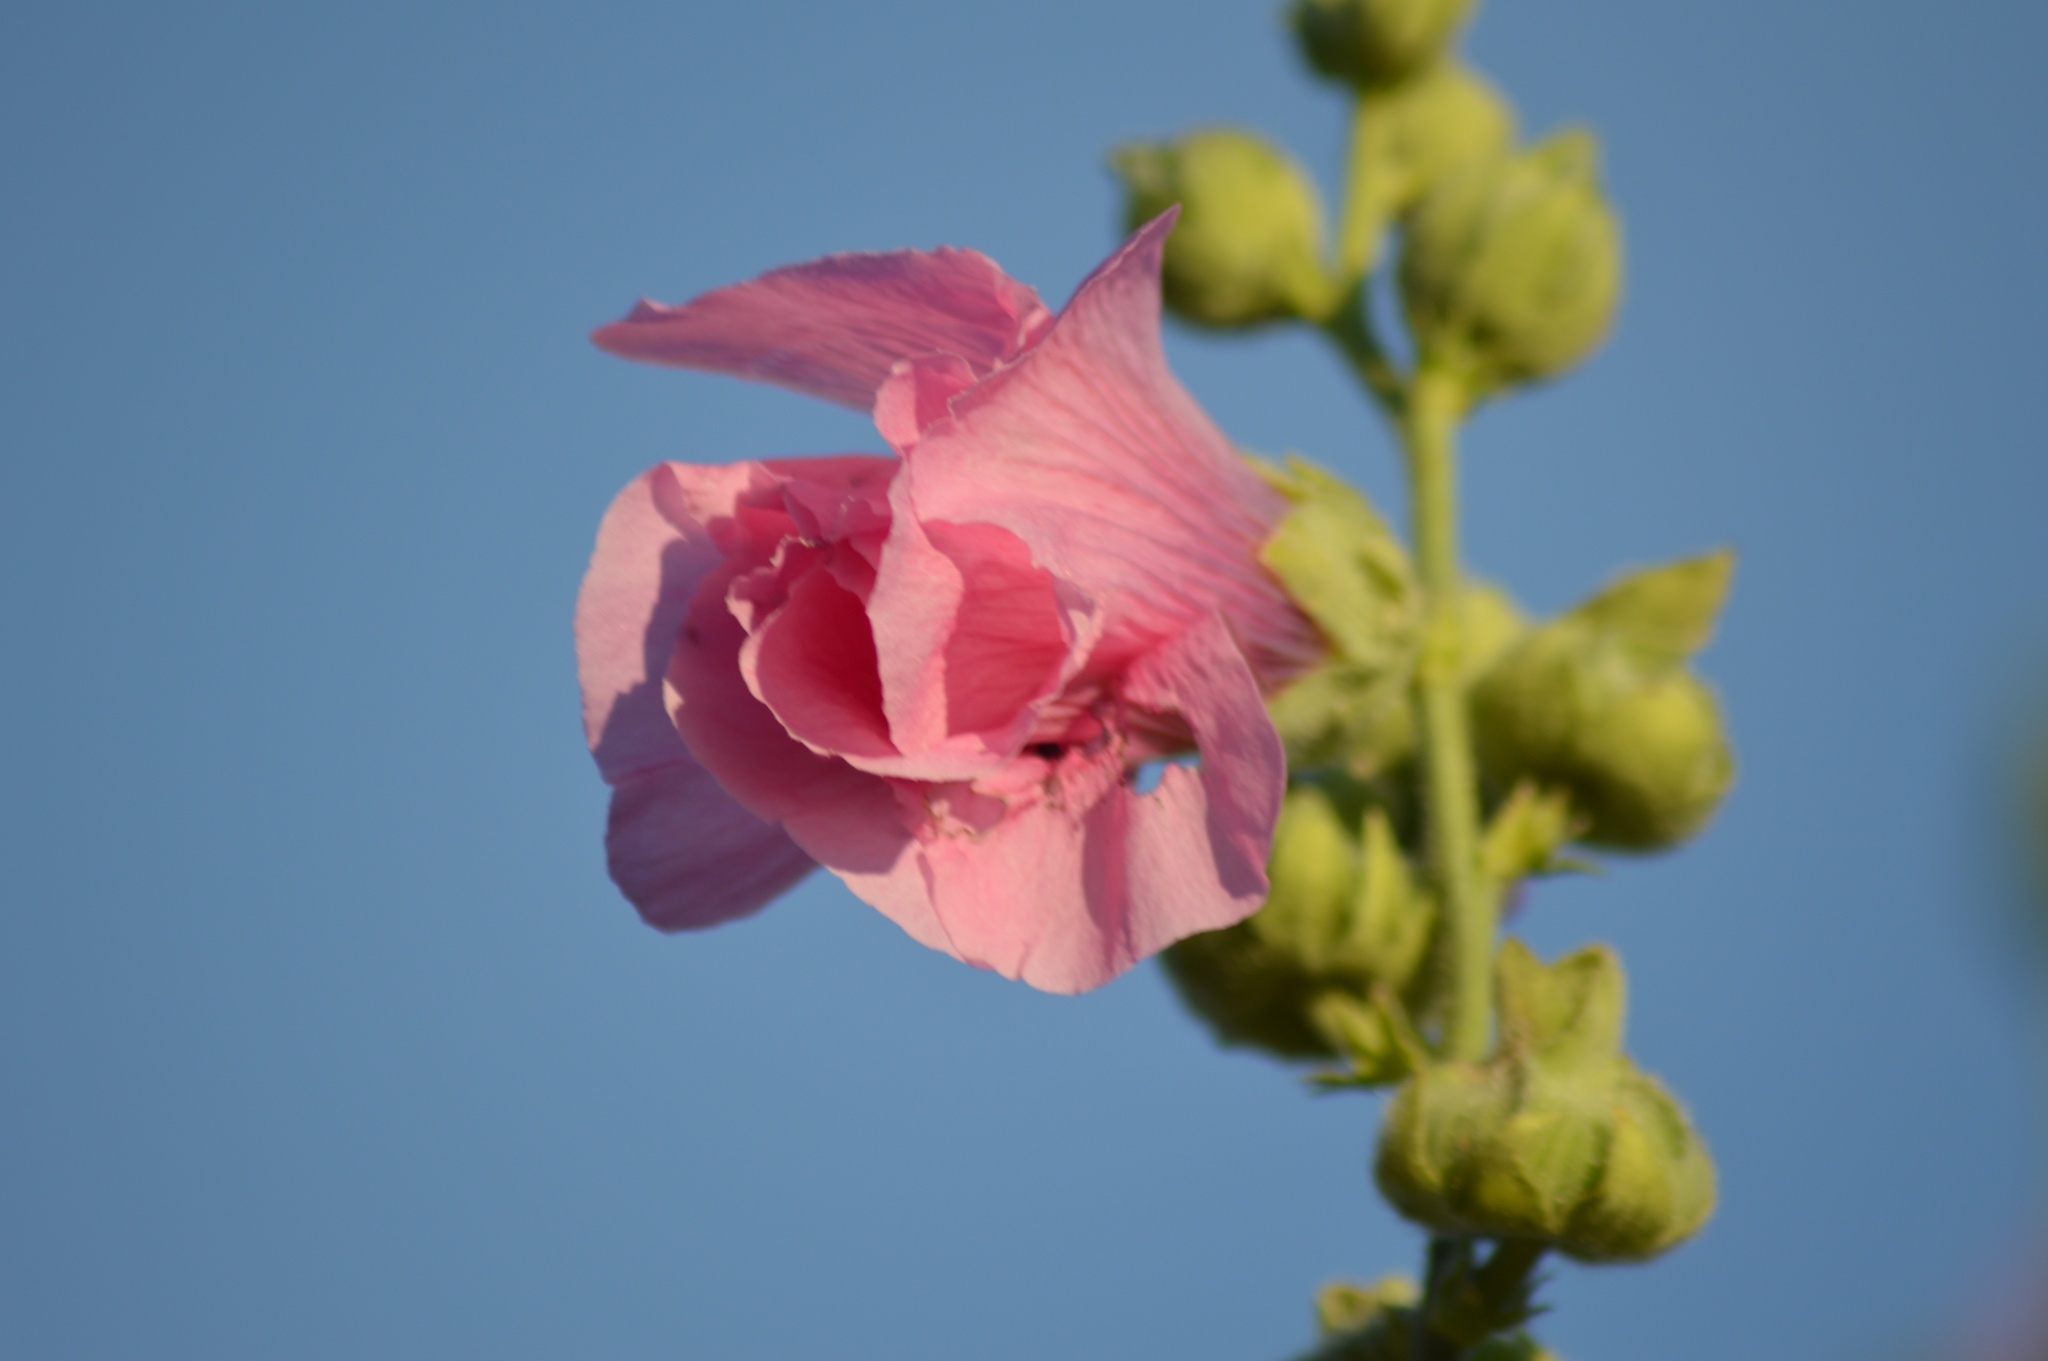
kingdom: Plantae
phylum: Tracheophyta
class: Magnoliopsida
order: Malvales
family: Malvaceae
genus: Alcea
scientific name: Alcea rosea
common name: Hollyhock
